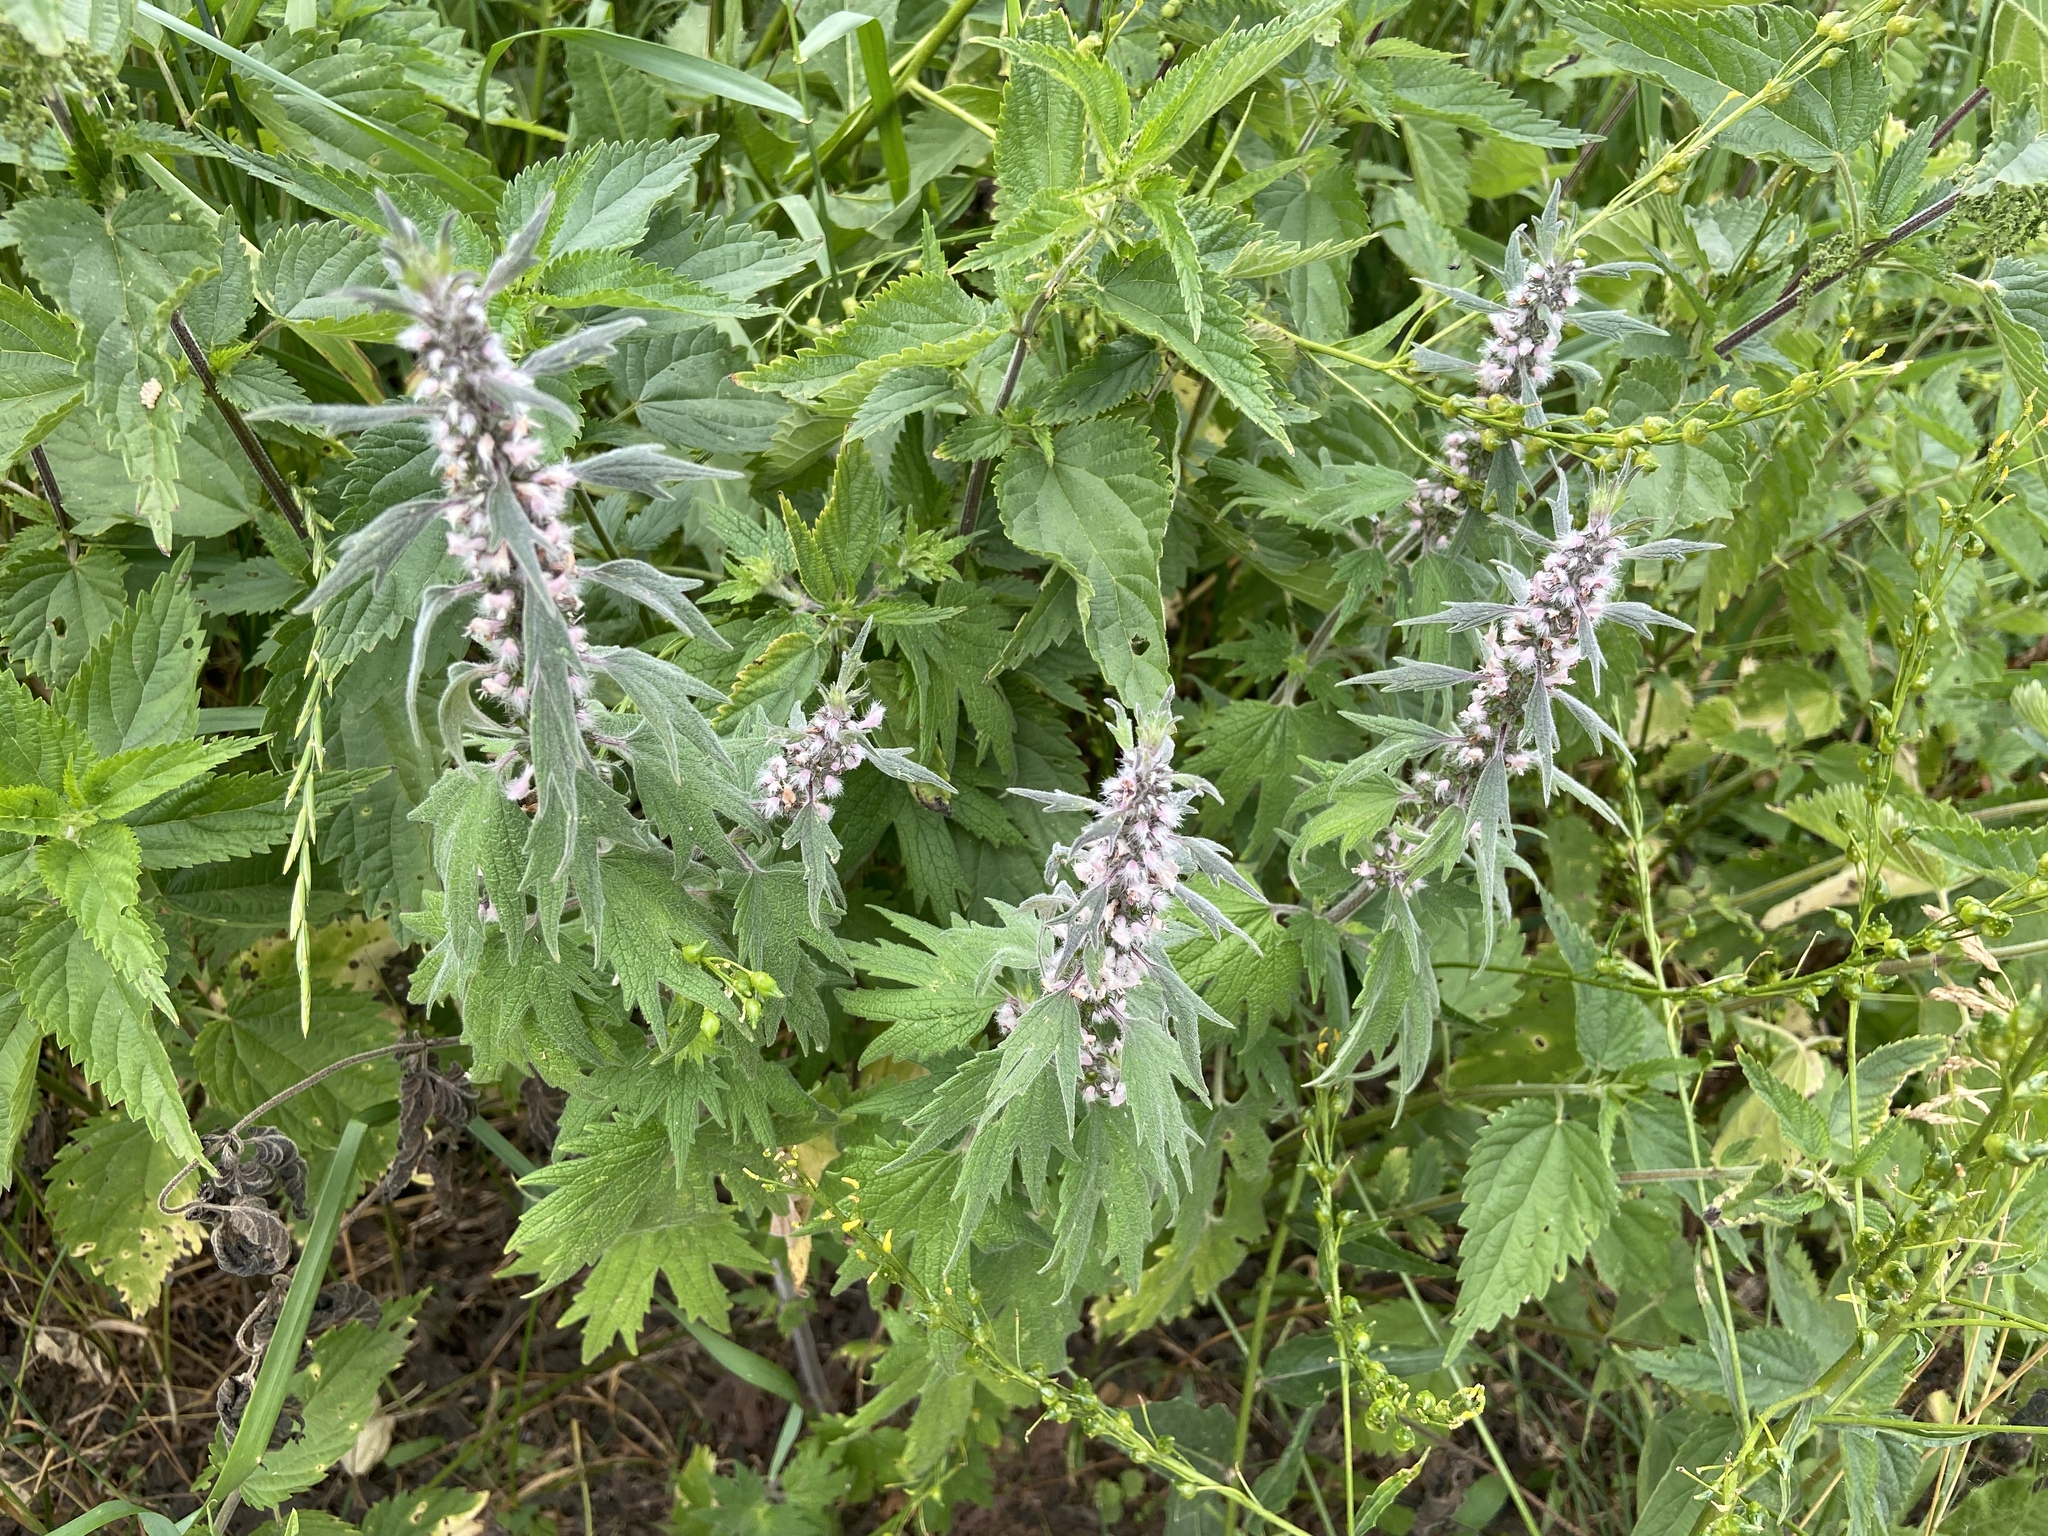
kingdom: Plantae
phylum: Tracheophyta
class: Magnoliopsida
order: Lamiales
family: Lamiaceae
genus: Leonurus
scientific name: Leonurus quinquelobatus
